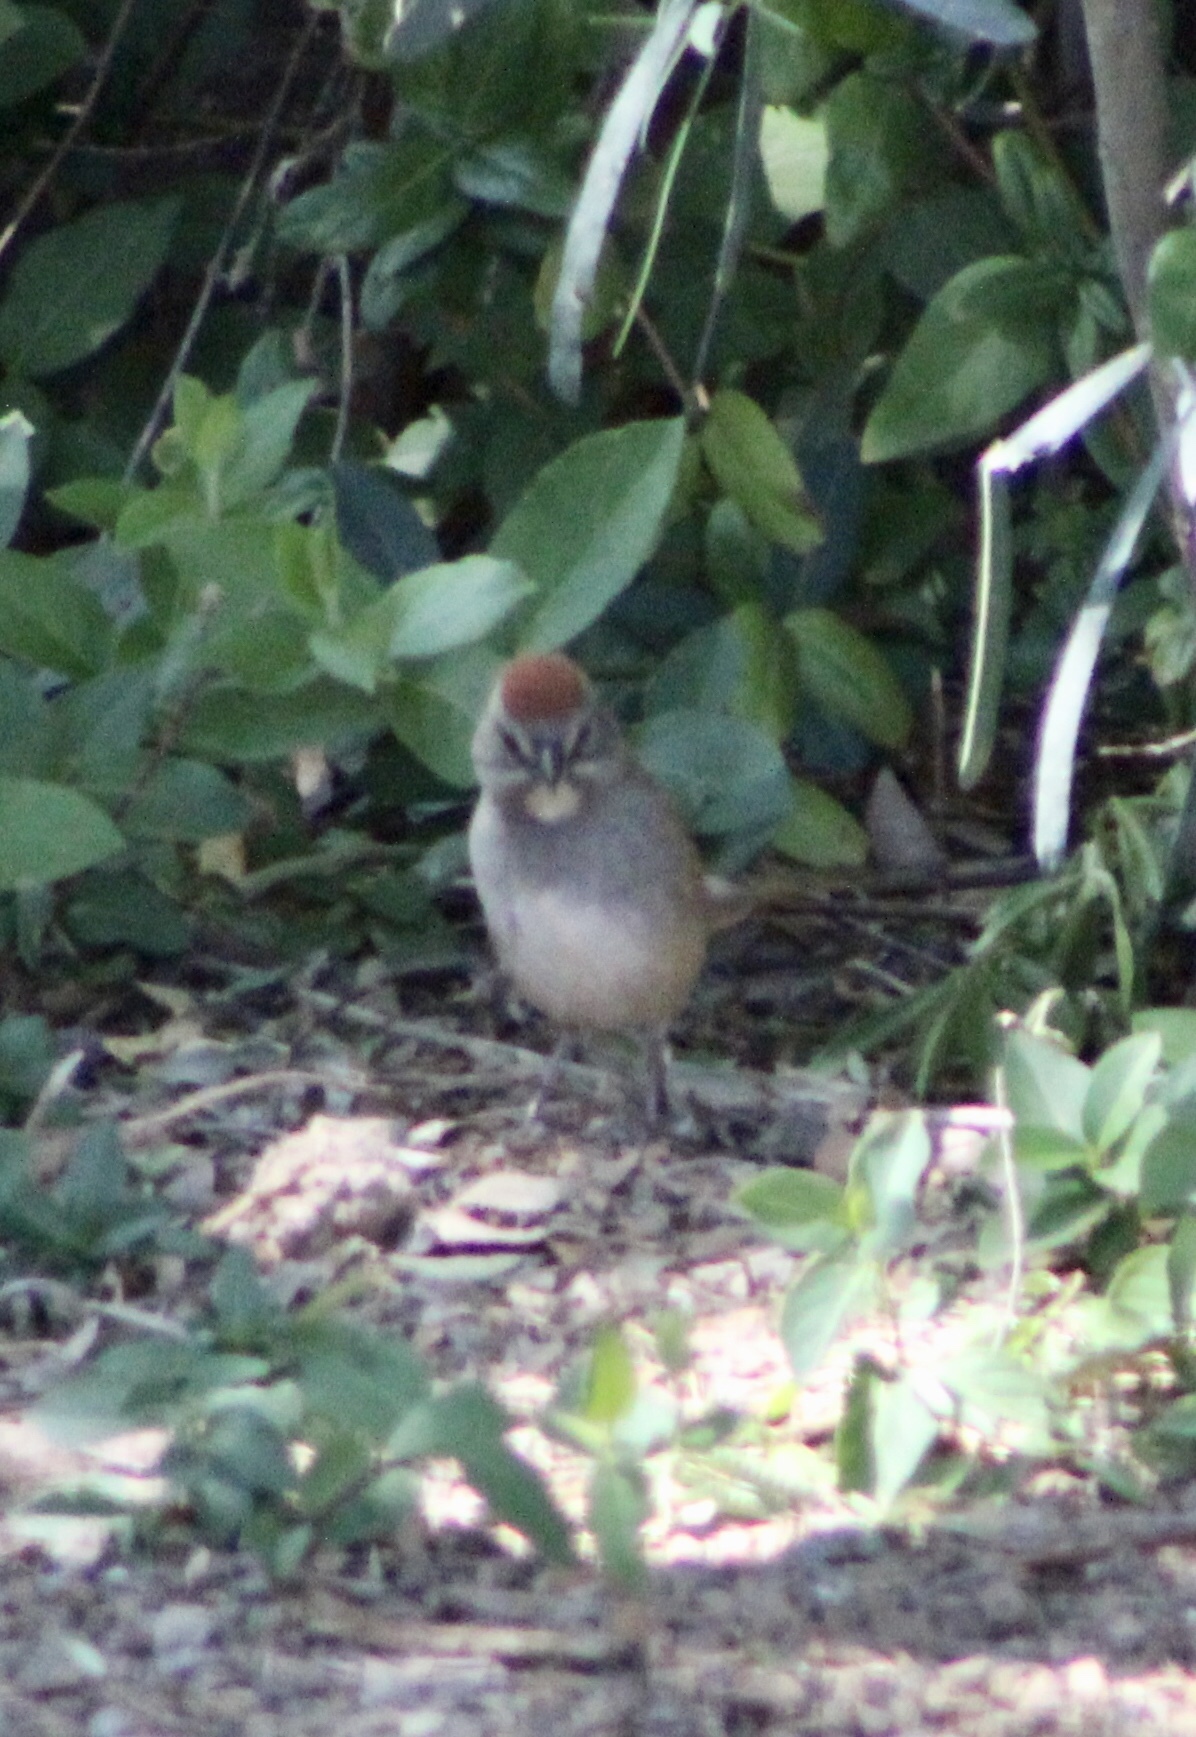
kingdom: Animalia
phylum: Chordata
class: Aves
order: Passeriformes
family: Passerellidae
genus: Pipilo
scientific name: Pipilo chlorurus
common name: Green-tailed towhee
